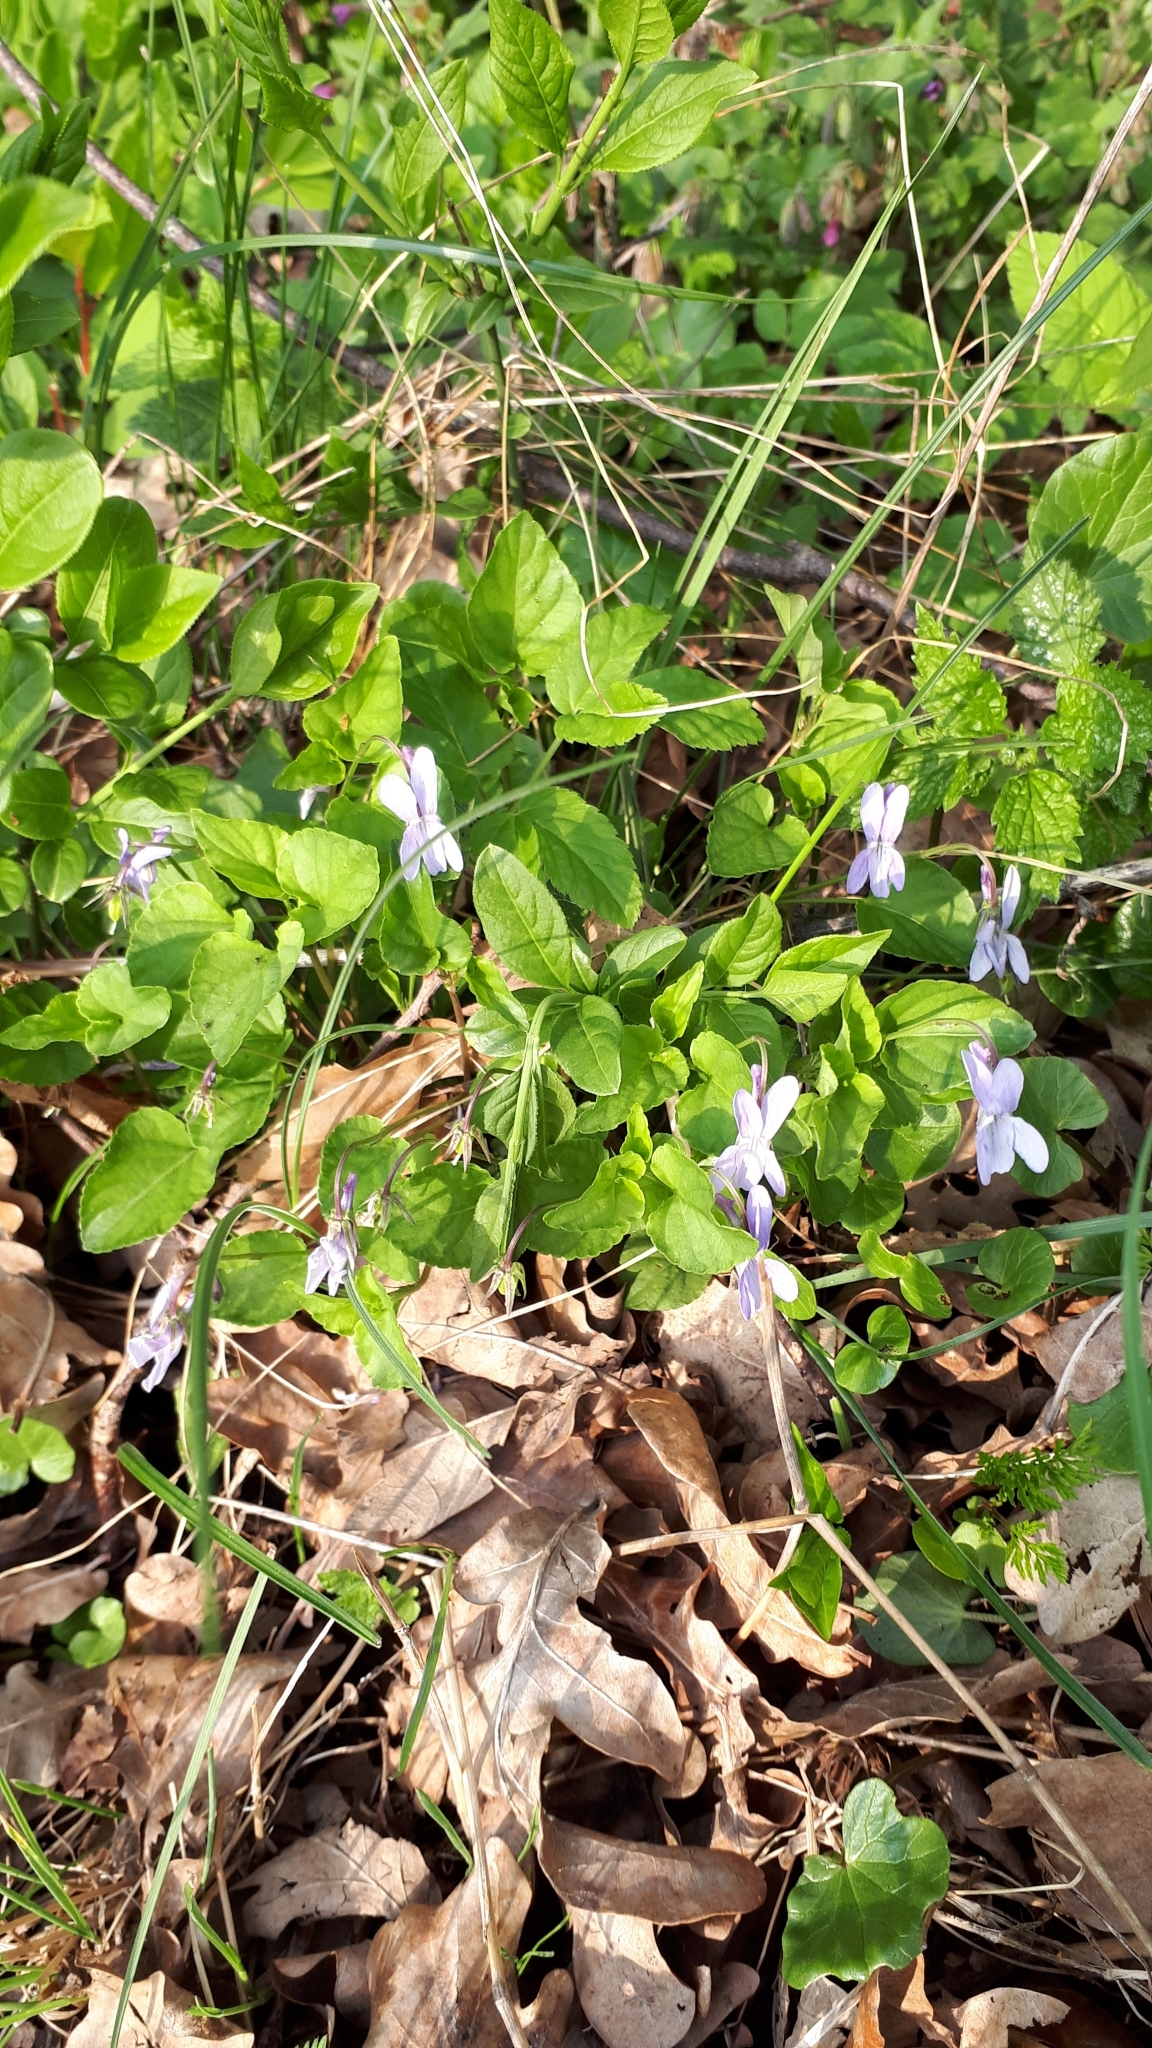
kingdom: Plantae
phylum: Tracheophyta
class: Magnoliopsida
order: Malpighiales
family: Violaceae
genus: Viola
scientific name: Viola reichenbachiana
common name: Early dog-violet
